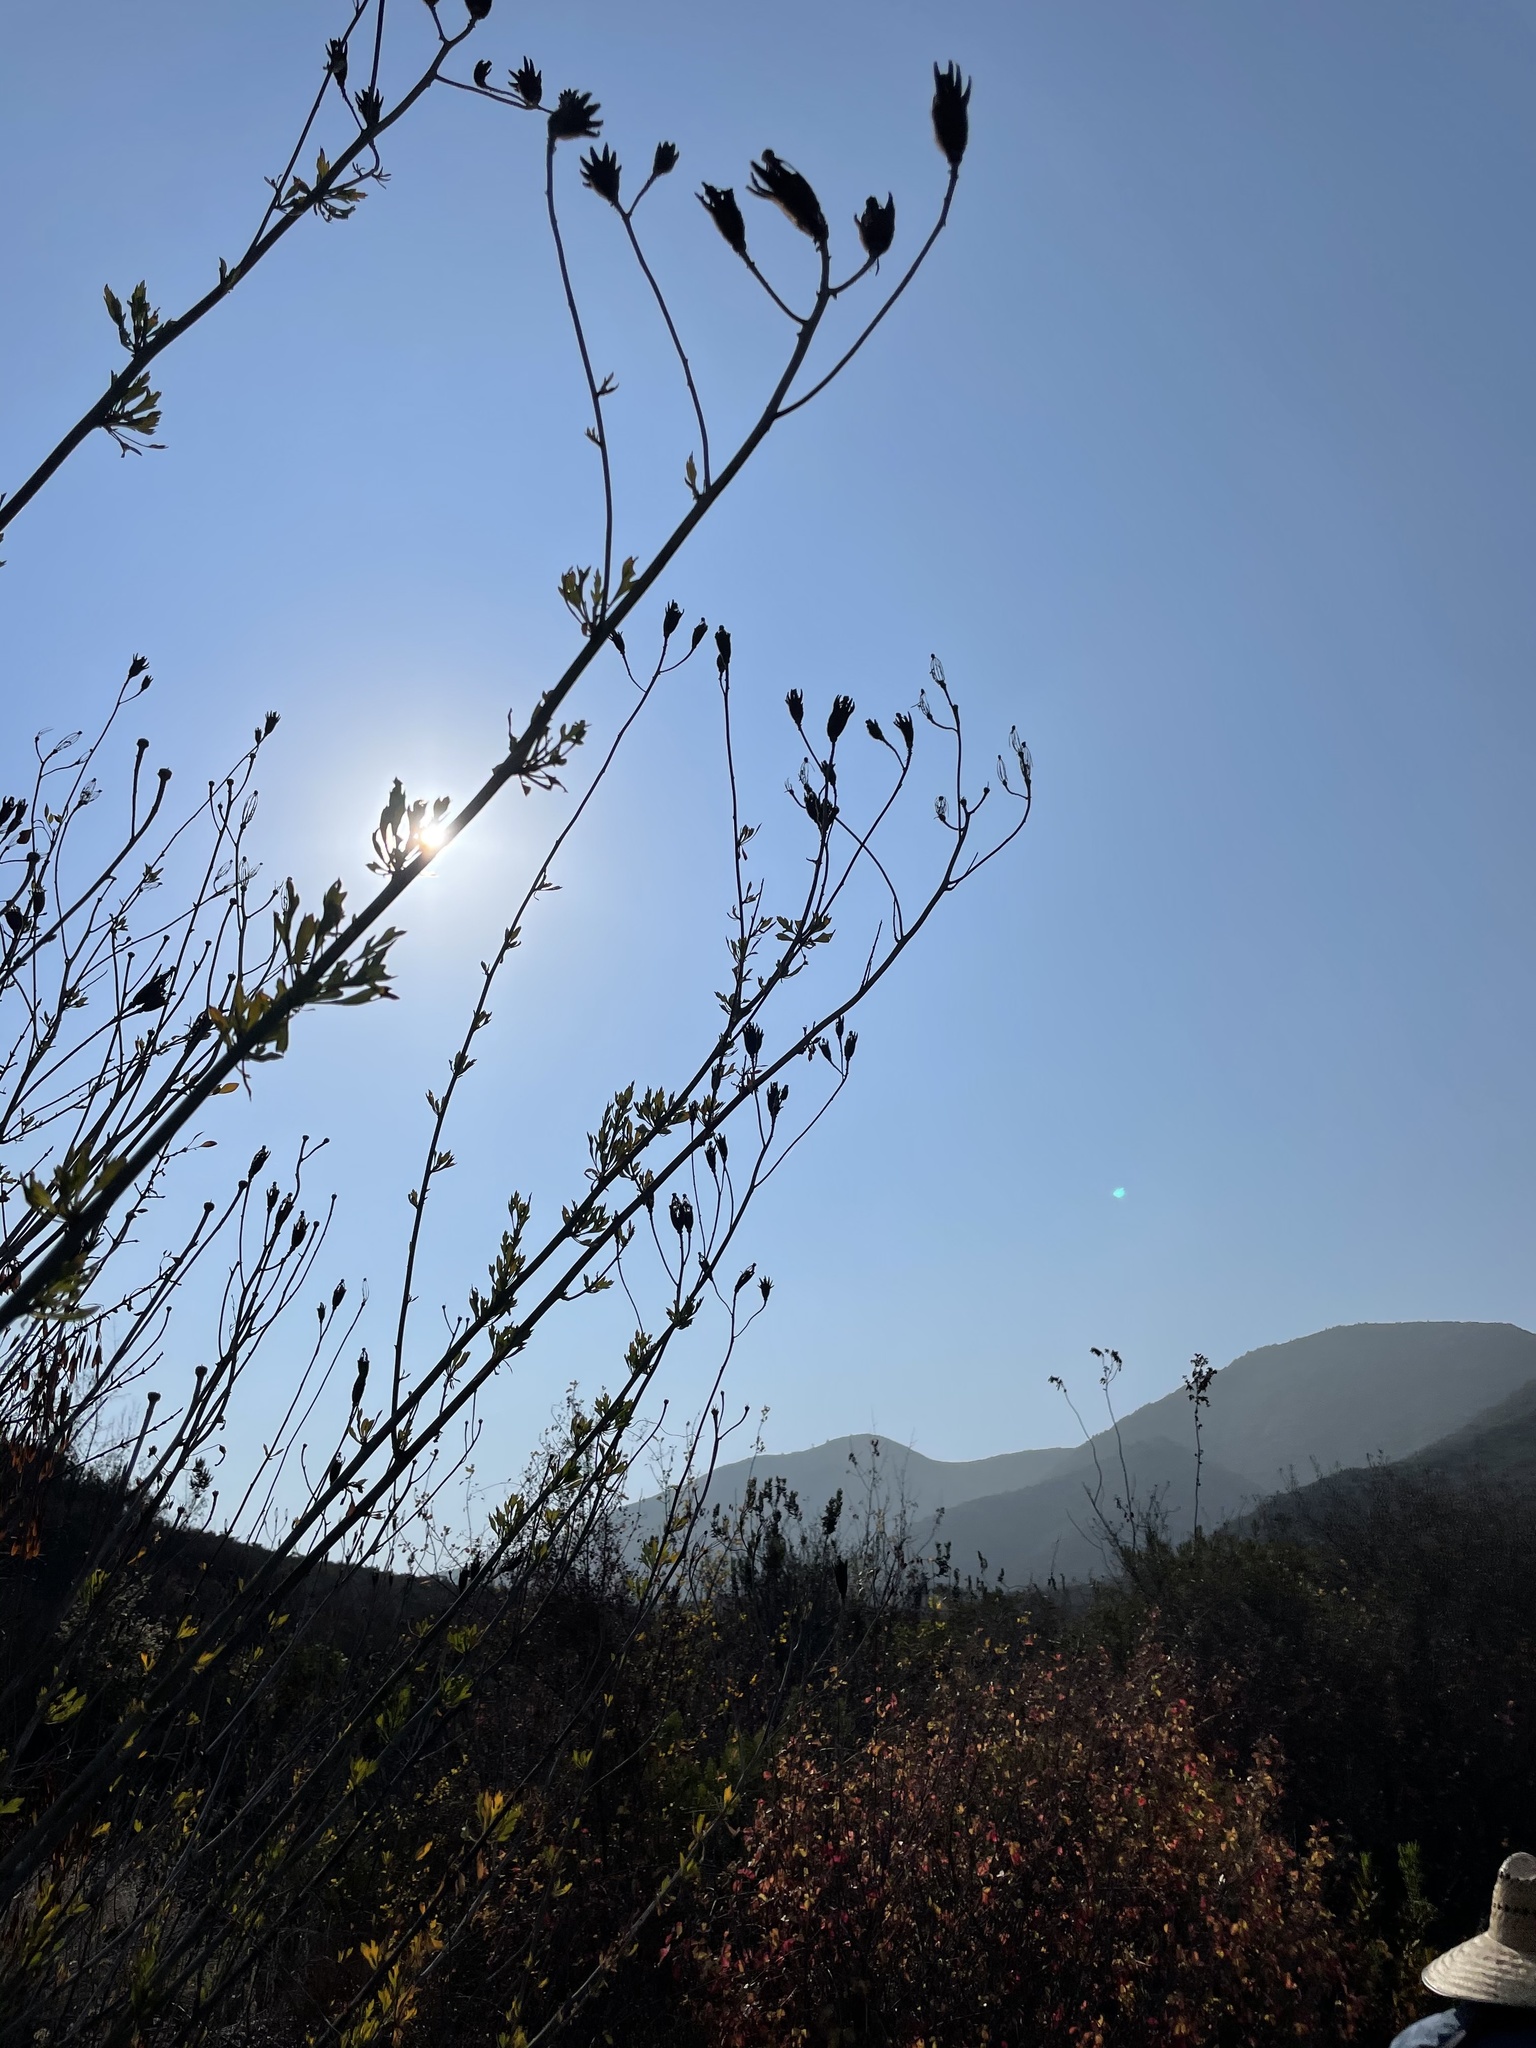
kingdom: Plantae
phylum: Tracheophyta
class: Magnoliopsida
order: Ranunculales
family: Papaveraceae
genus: Romneya
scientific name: Romneya trichocalyx
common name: Hairy matilija-poppy
